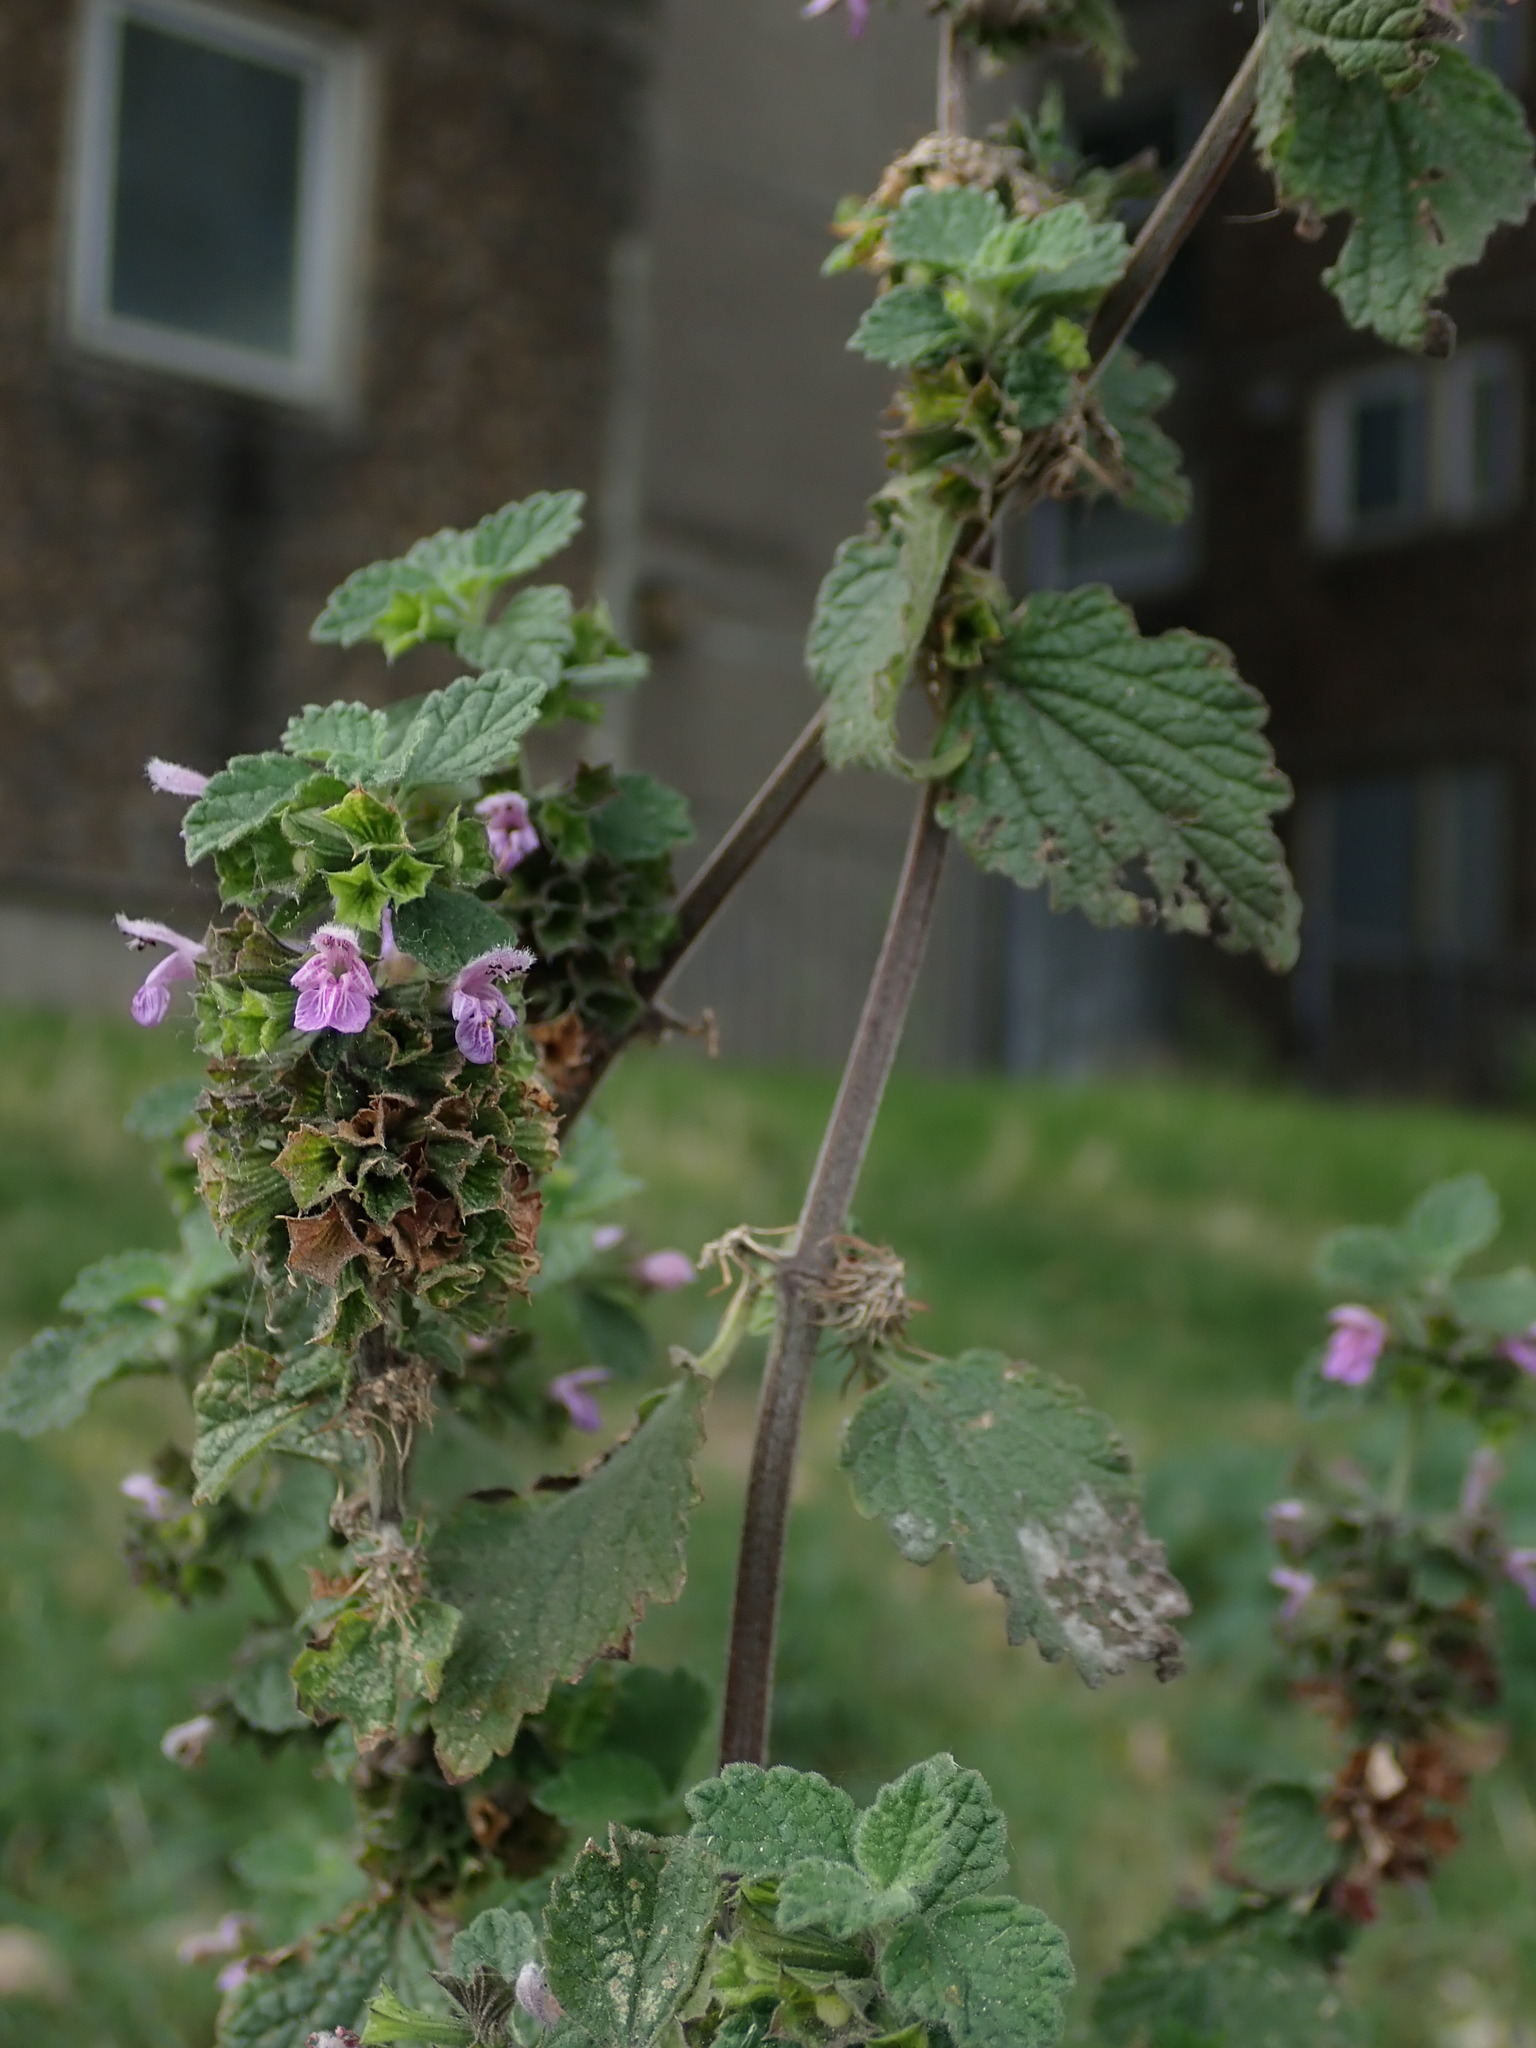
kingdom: Plantae
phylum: Tracheophyta
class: Magnoliopsida
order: Lamiales
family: Lamiaceae
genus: Ballota
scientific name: Ballota nigra
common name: Black horehound
